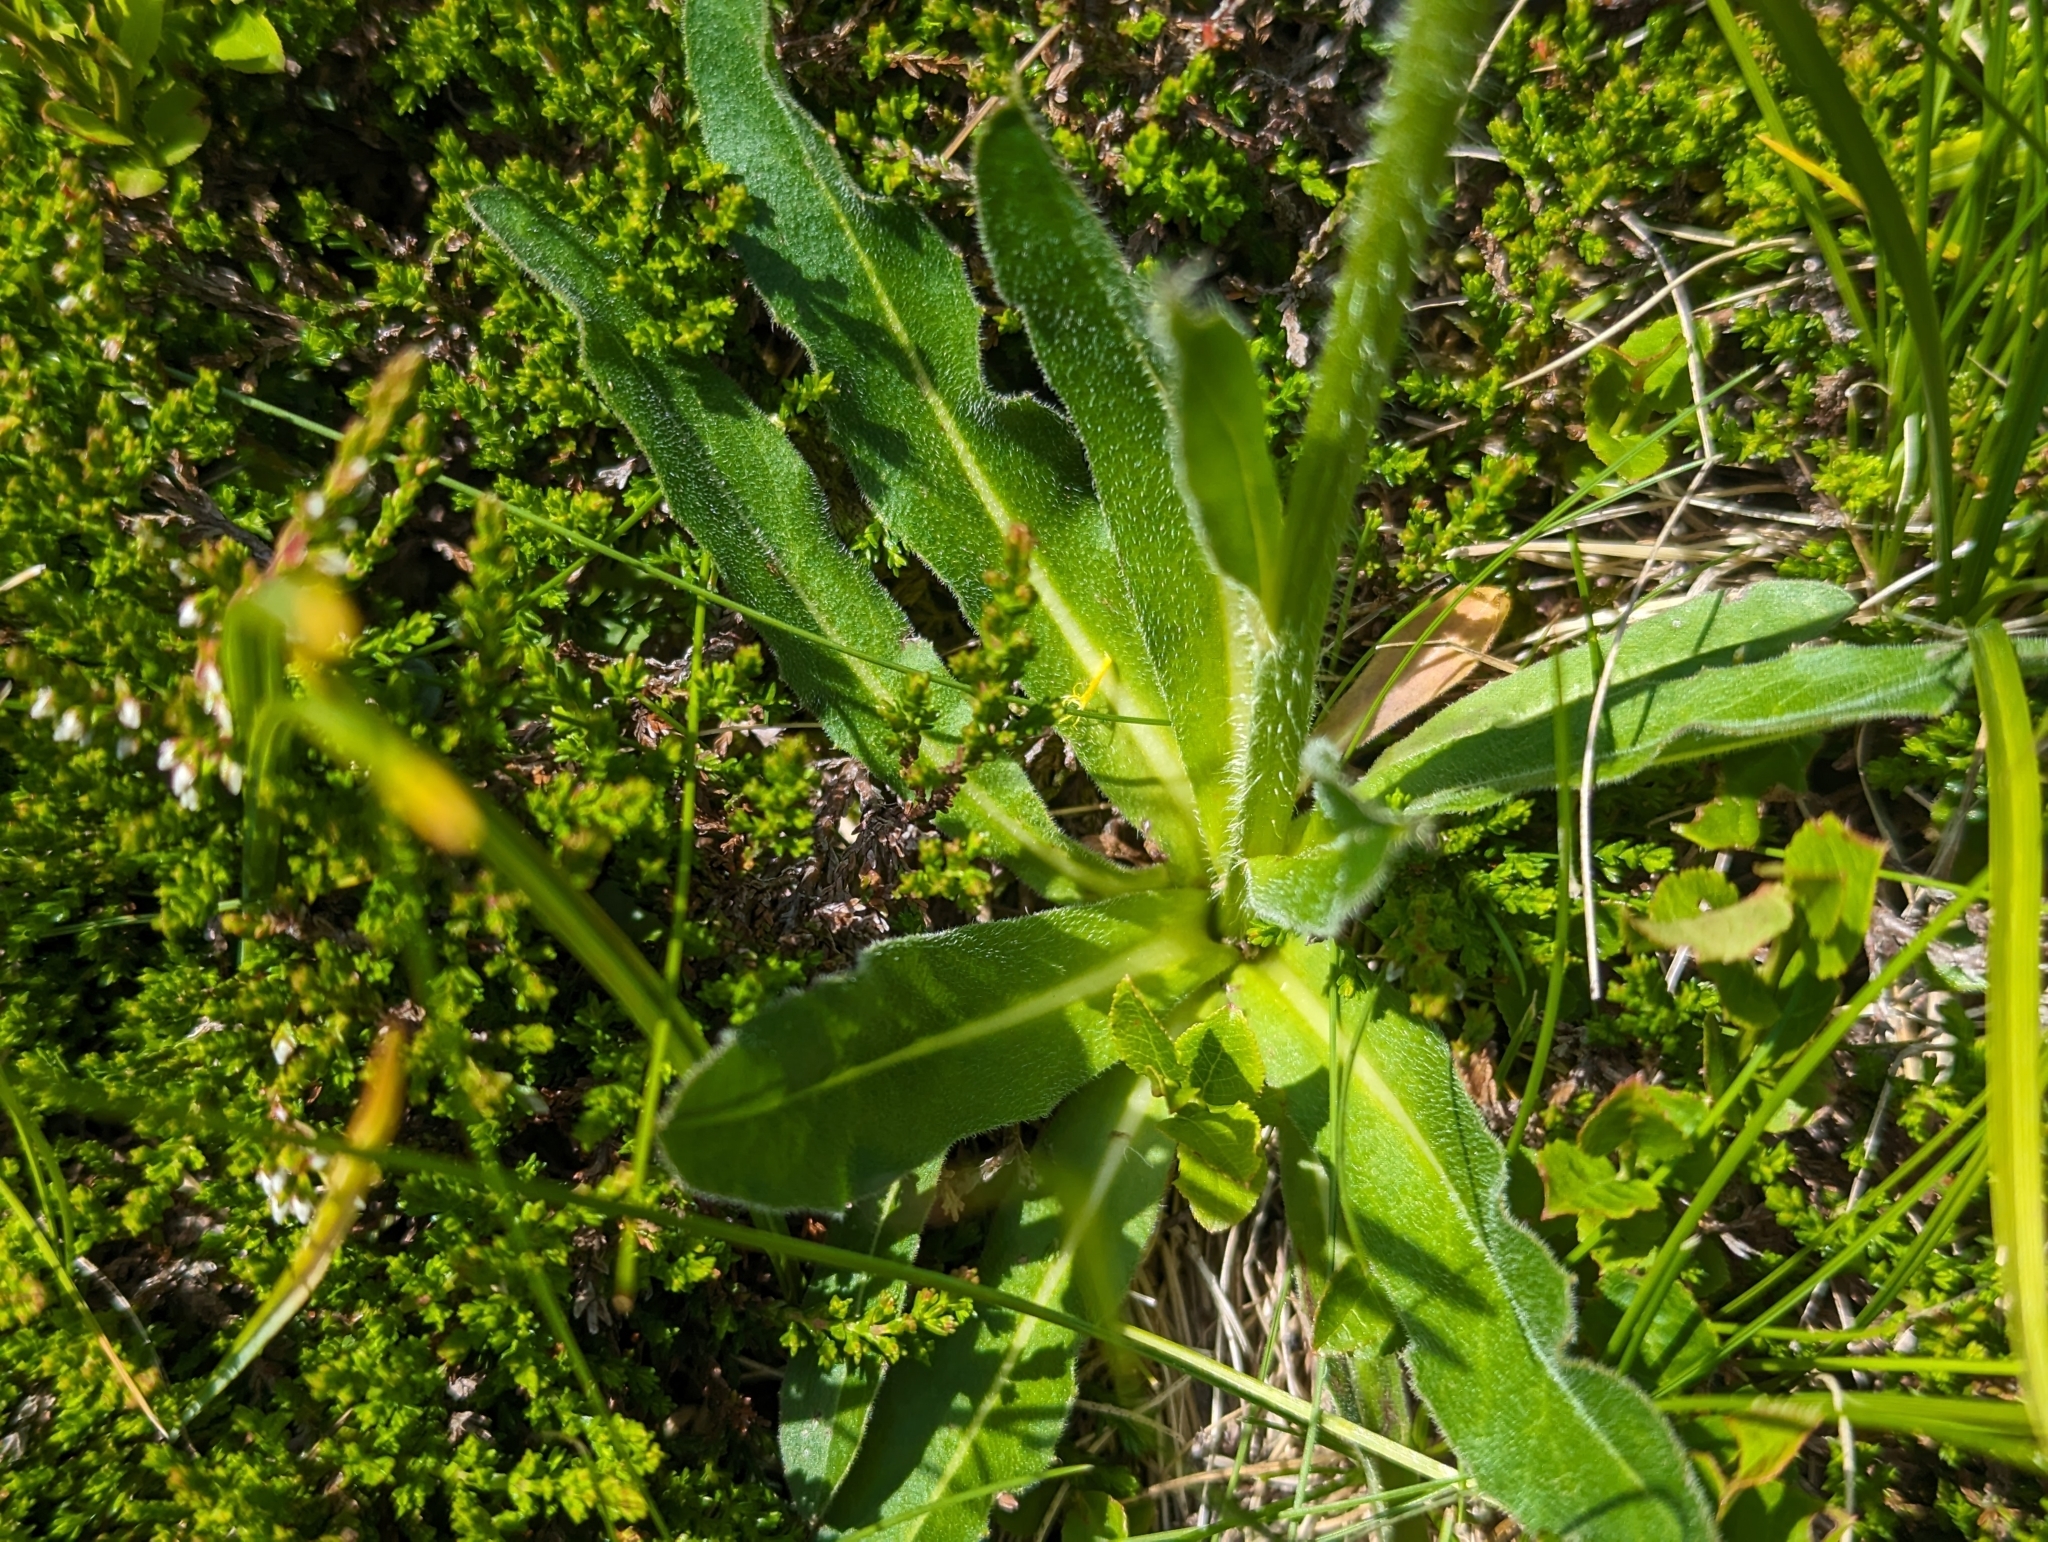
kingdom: Plantae
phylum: Tracheophyta
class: Magnoliopsida
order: Asterales
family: Asteraceae
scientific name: Asteraceae
